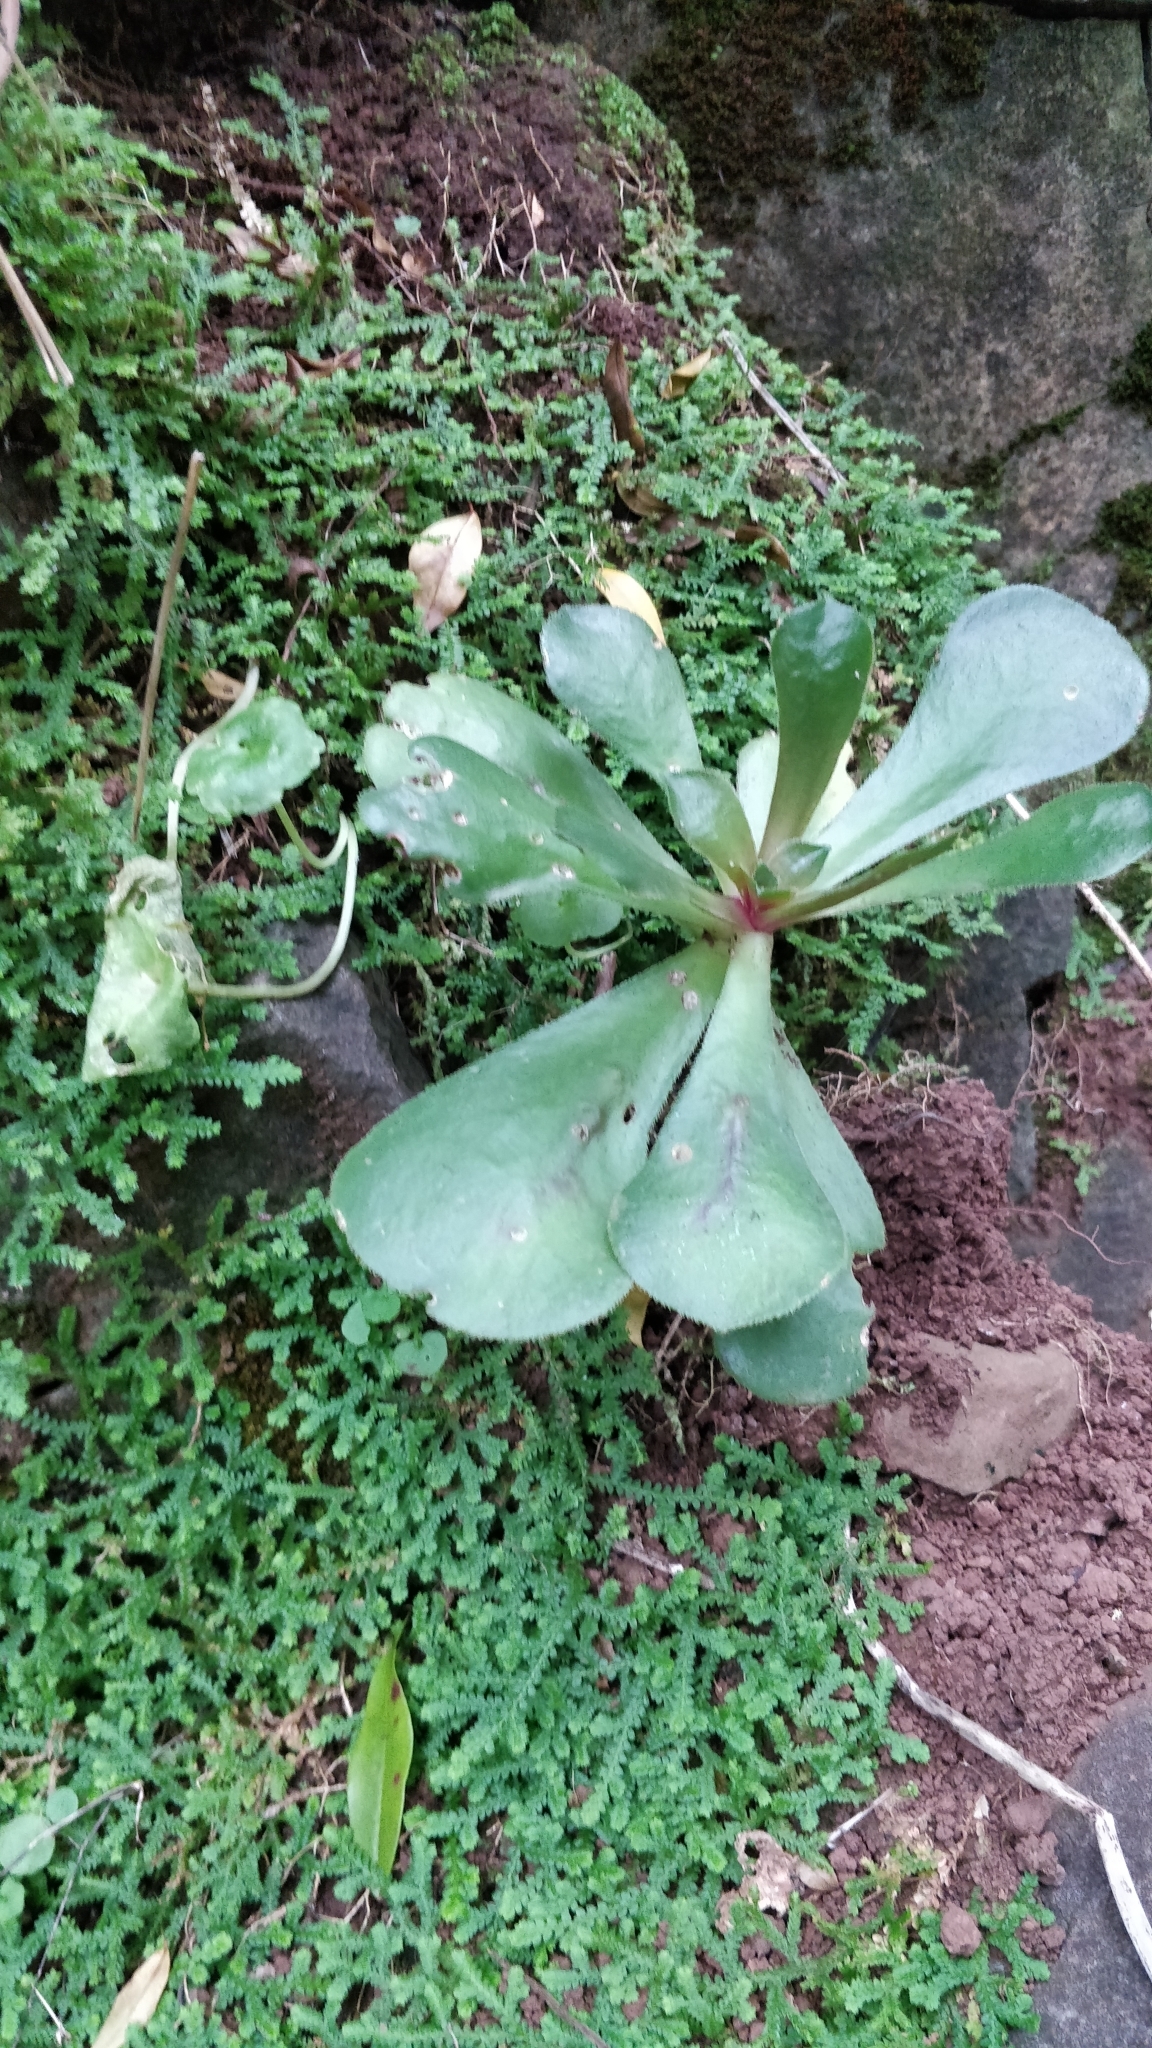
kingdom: Plantae
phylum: Tracheophyta
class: Magnoliopsida
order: Saxifragales
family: Crassulaceae
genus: Aeonium
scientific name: Aeonium glutinosum
